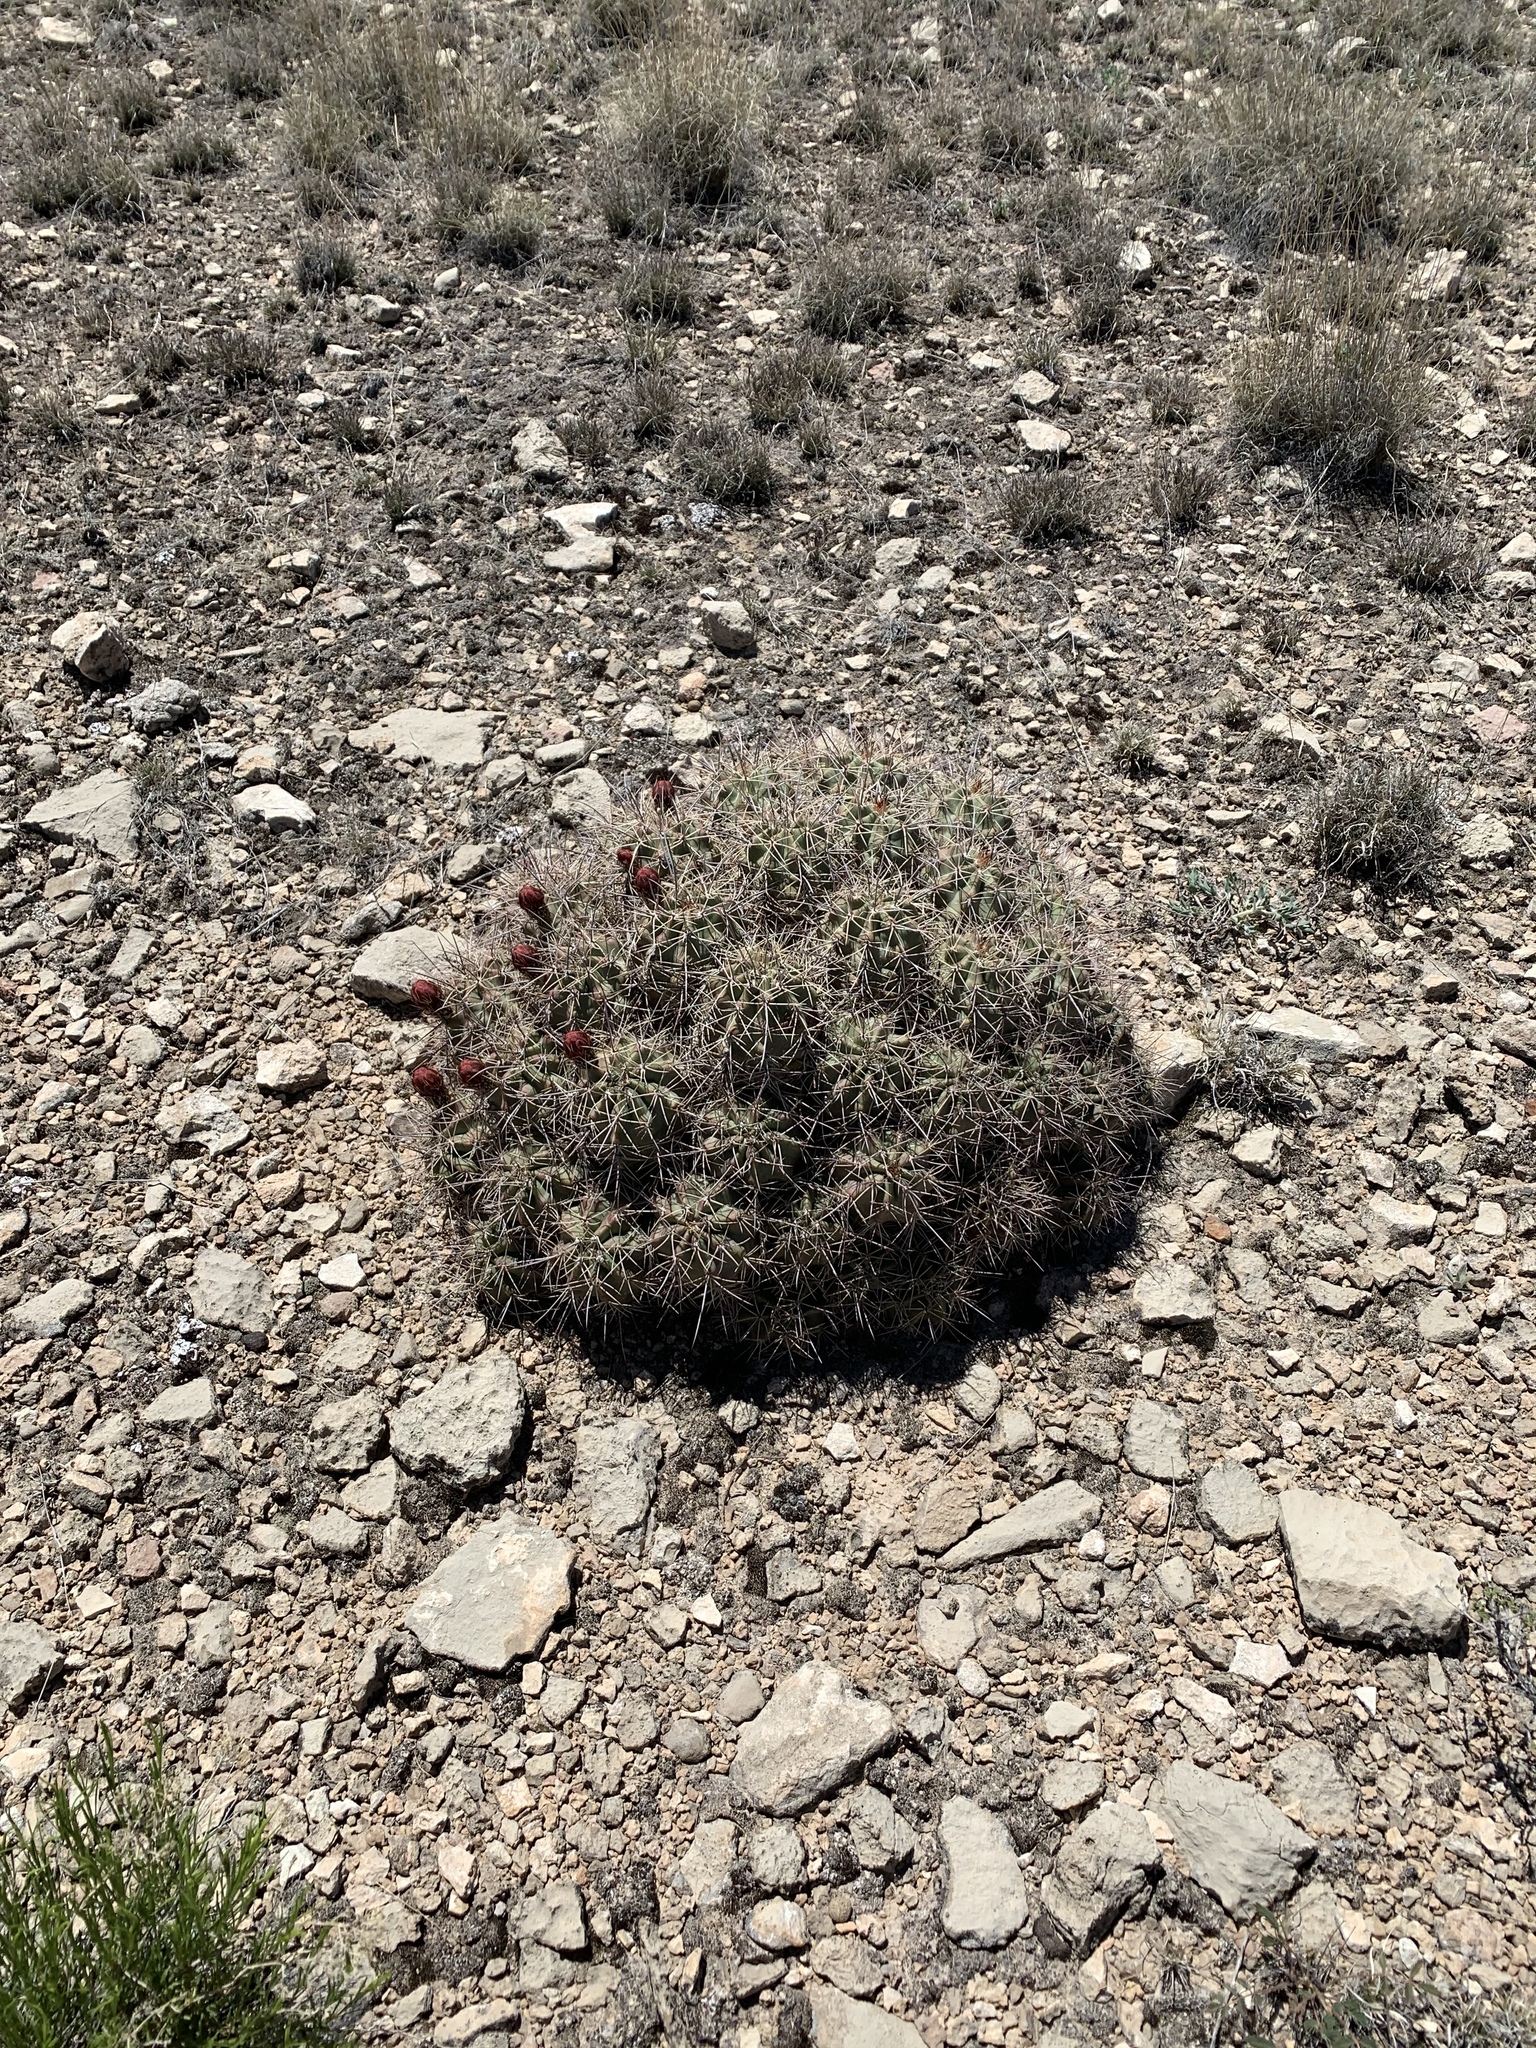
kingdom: Plantae
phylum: Tracheophyta
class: Magnoliopsida
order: Caryophyllales
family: Cactaceae
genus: Echinocereus
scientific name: Echinocereus coccineus
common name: Scarlet hedgehog cactus
